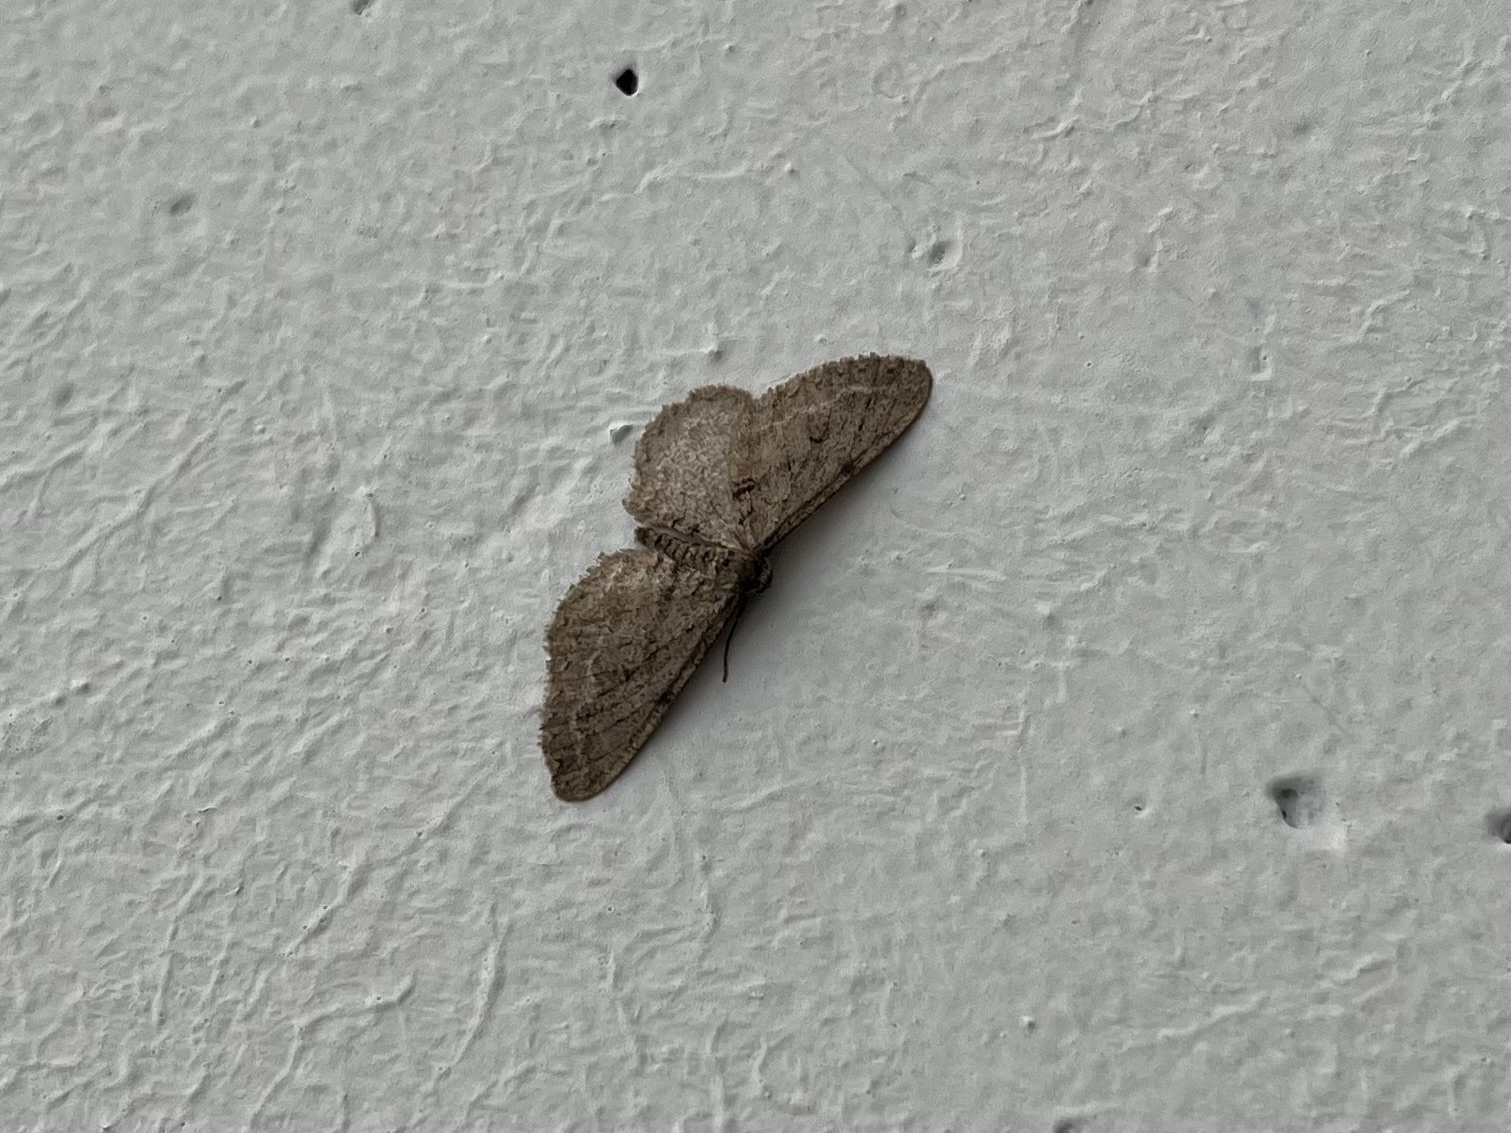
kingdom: Animalia
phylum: Arthropoda
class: Insecta
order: Lepidoptera
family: Geometridae
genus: Agriopis
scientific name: Agriopis bajaria
